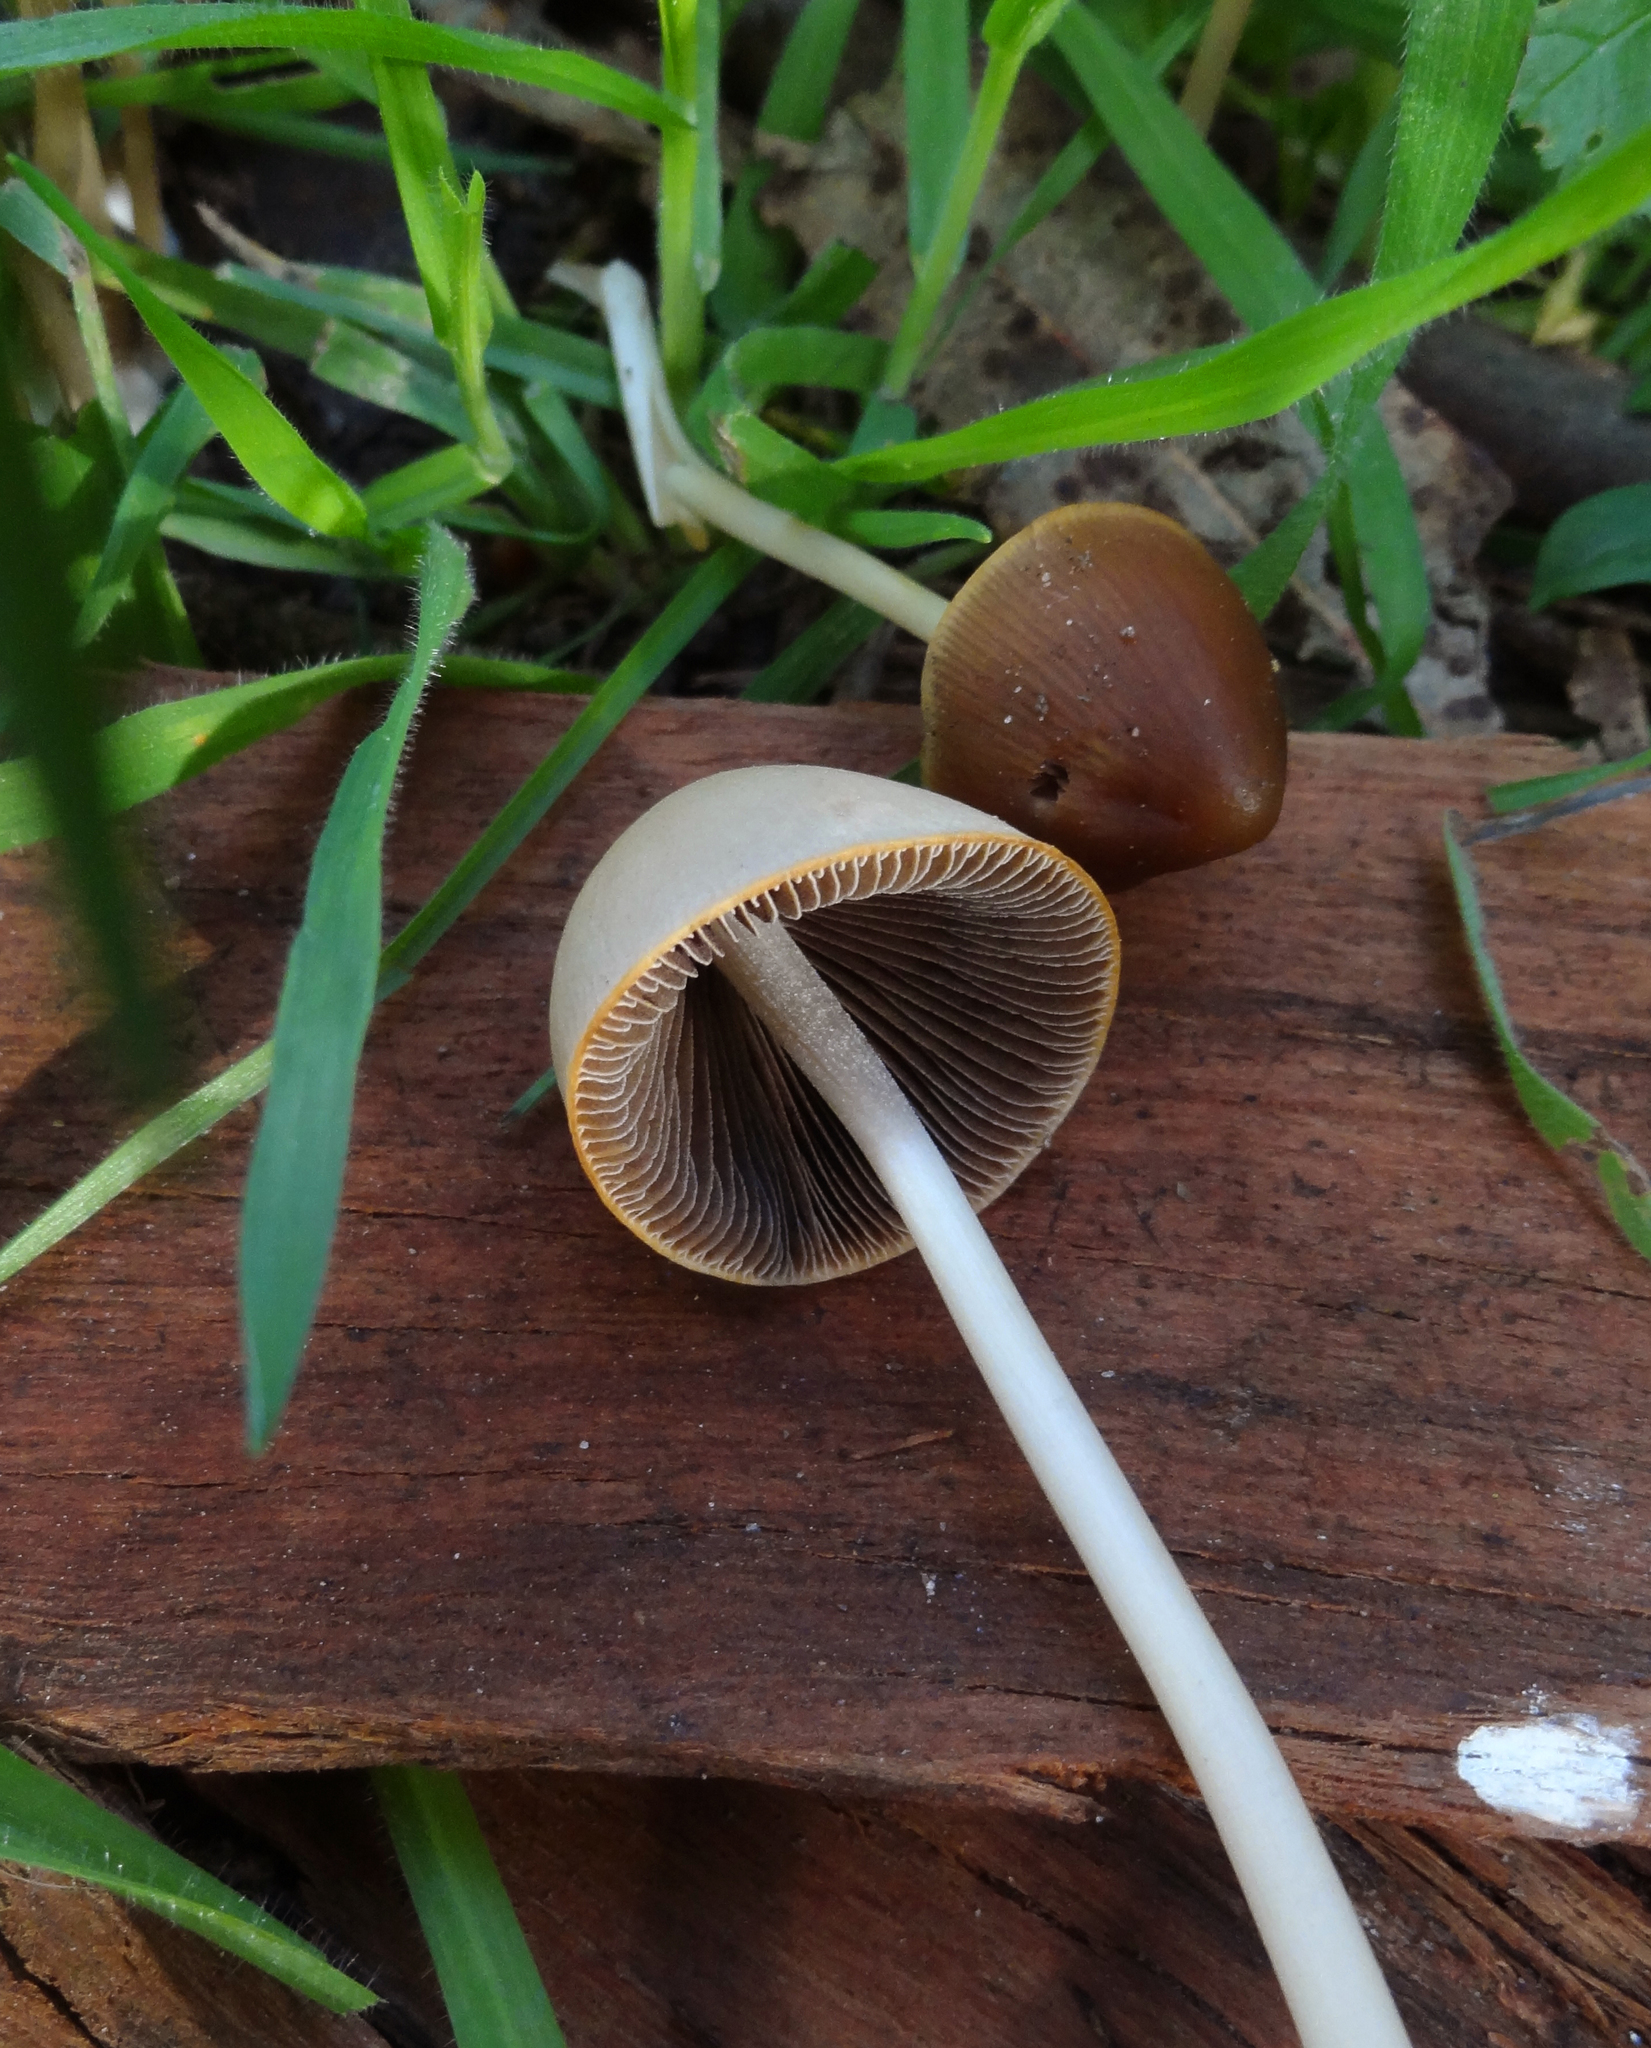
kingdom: Fungi
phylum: Basidiomycota
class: Agaricomycetes
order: Agaricales
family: Psathyrellaceae
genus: Psathyrella
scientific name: Psathyrella atrospora
